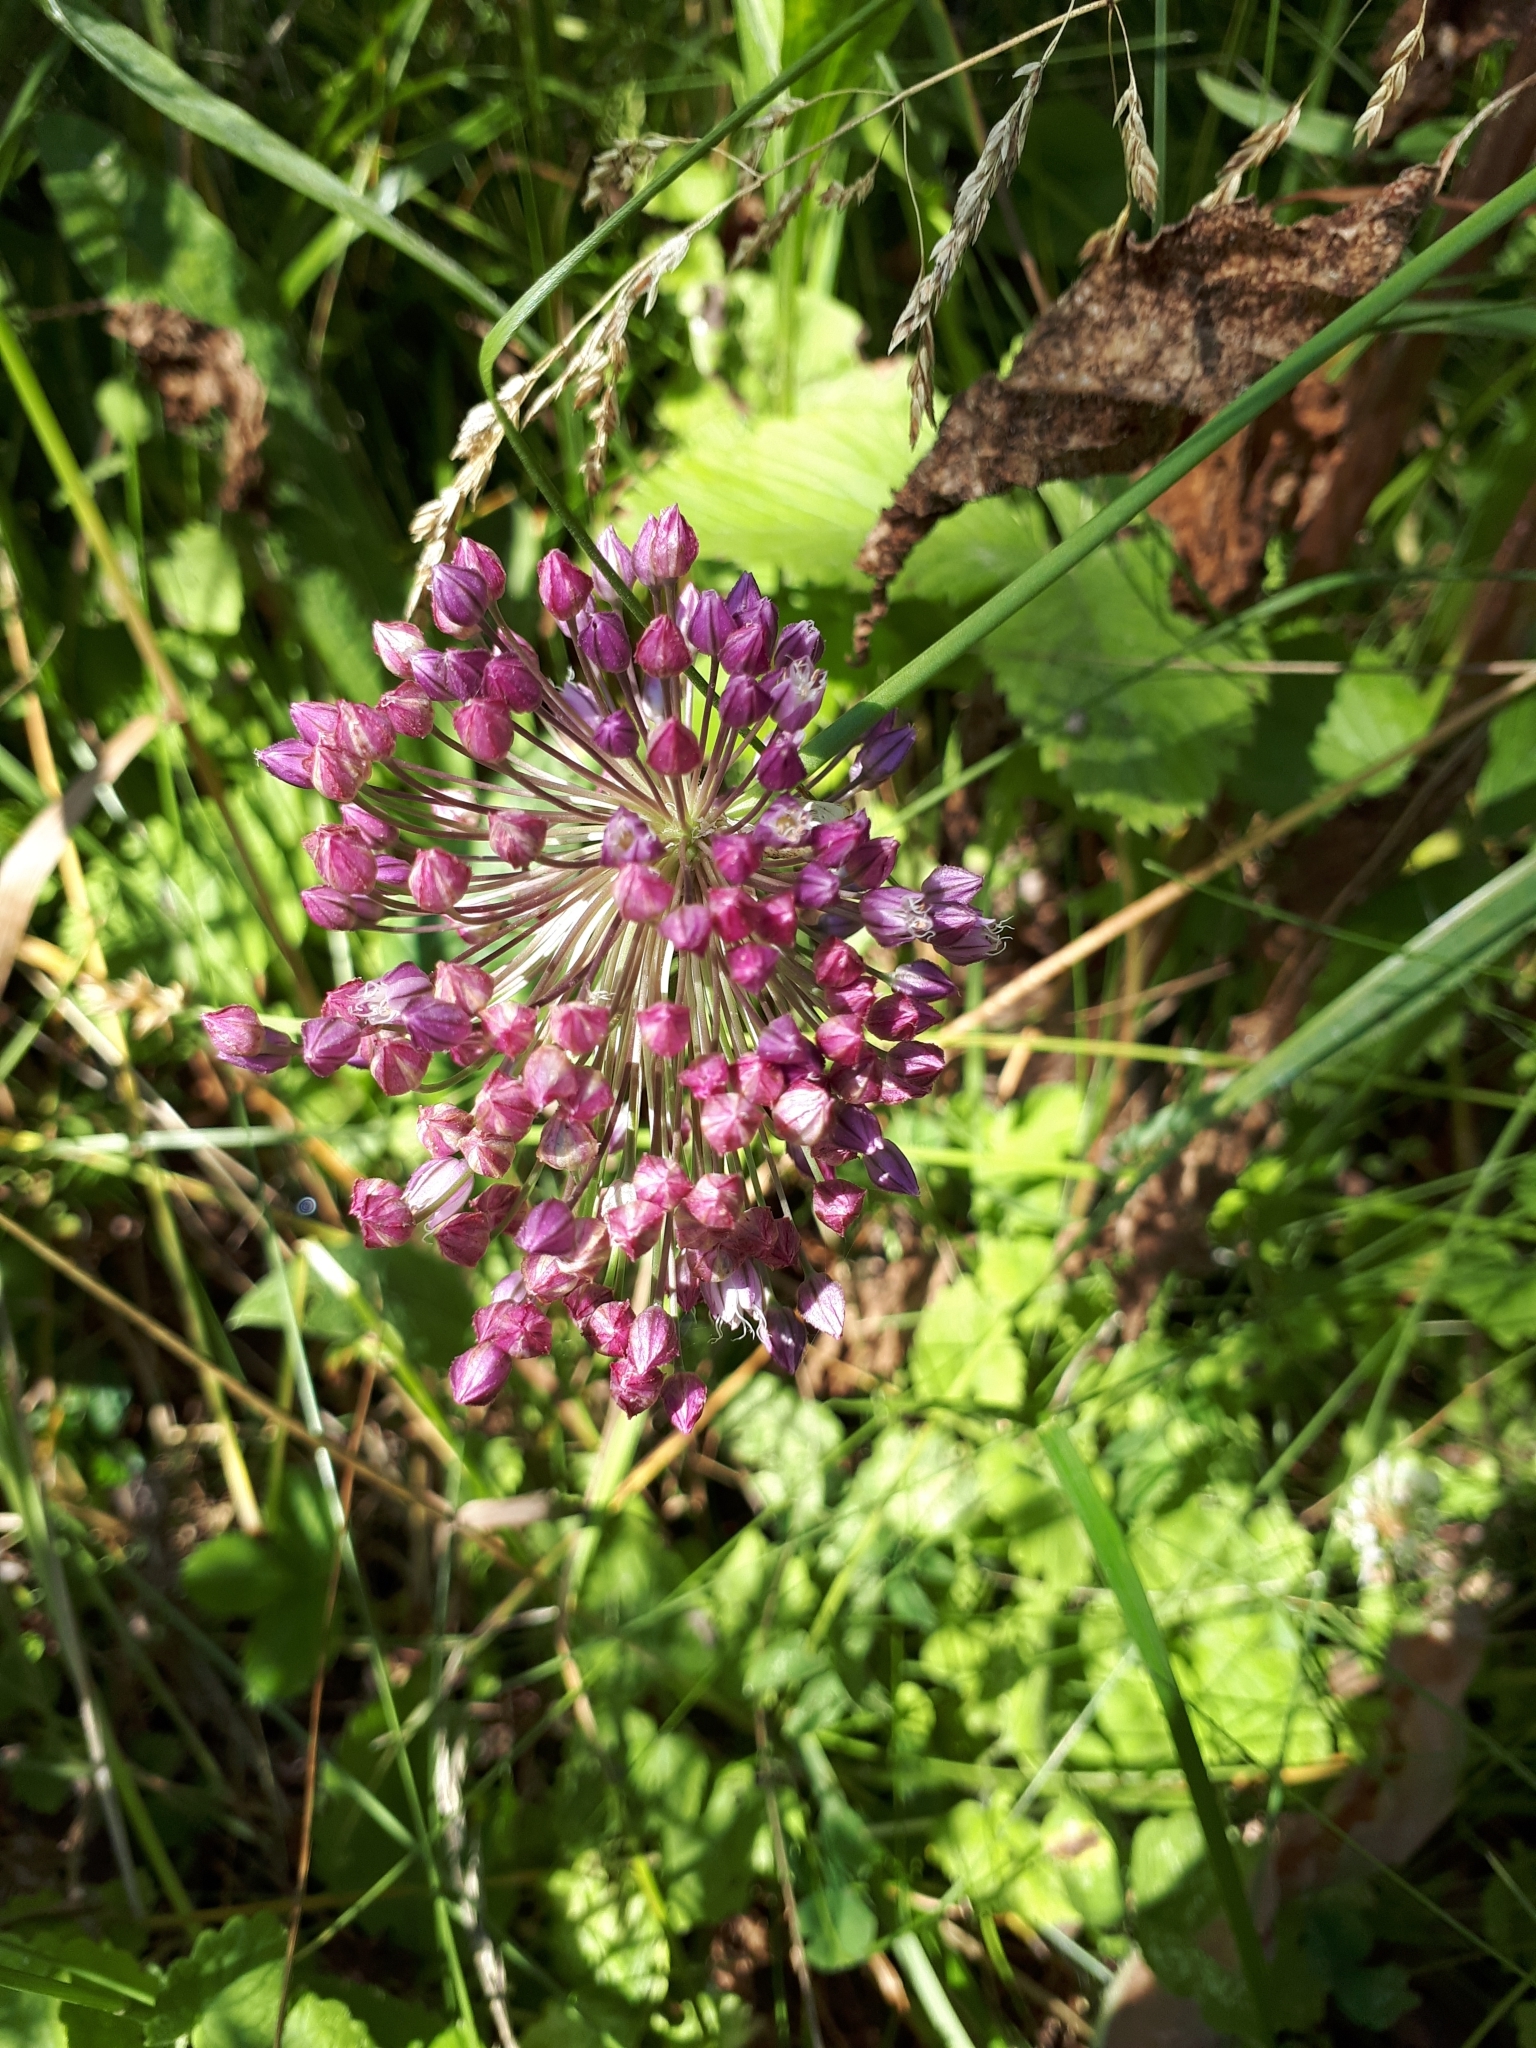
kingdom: Plantae
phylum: Tracheophyta
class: Liliopsida
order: Asparagales
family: Amaryllidaceae
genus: Allium
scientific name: Allium rotundum
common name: Sand leek
